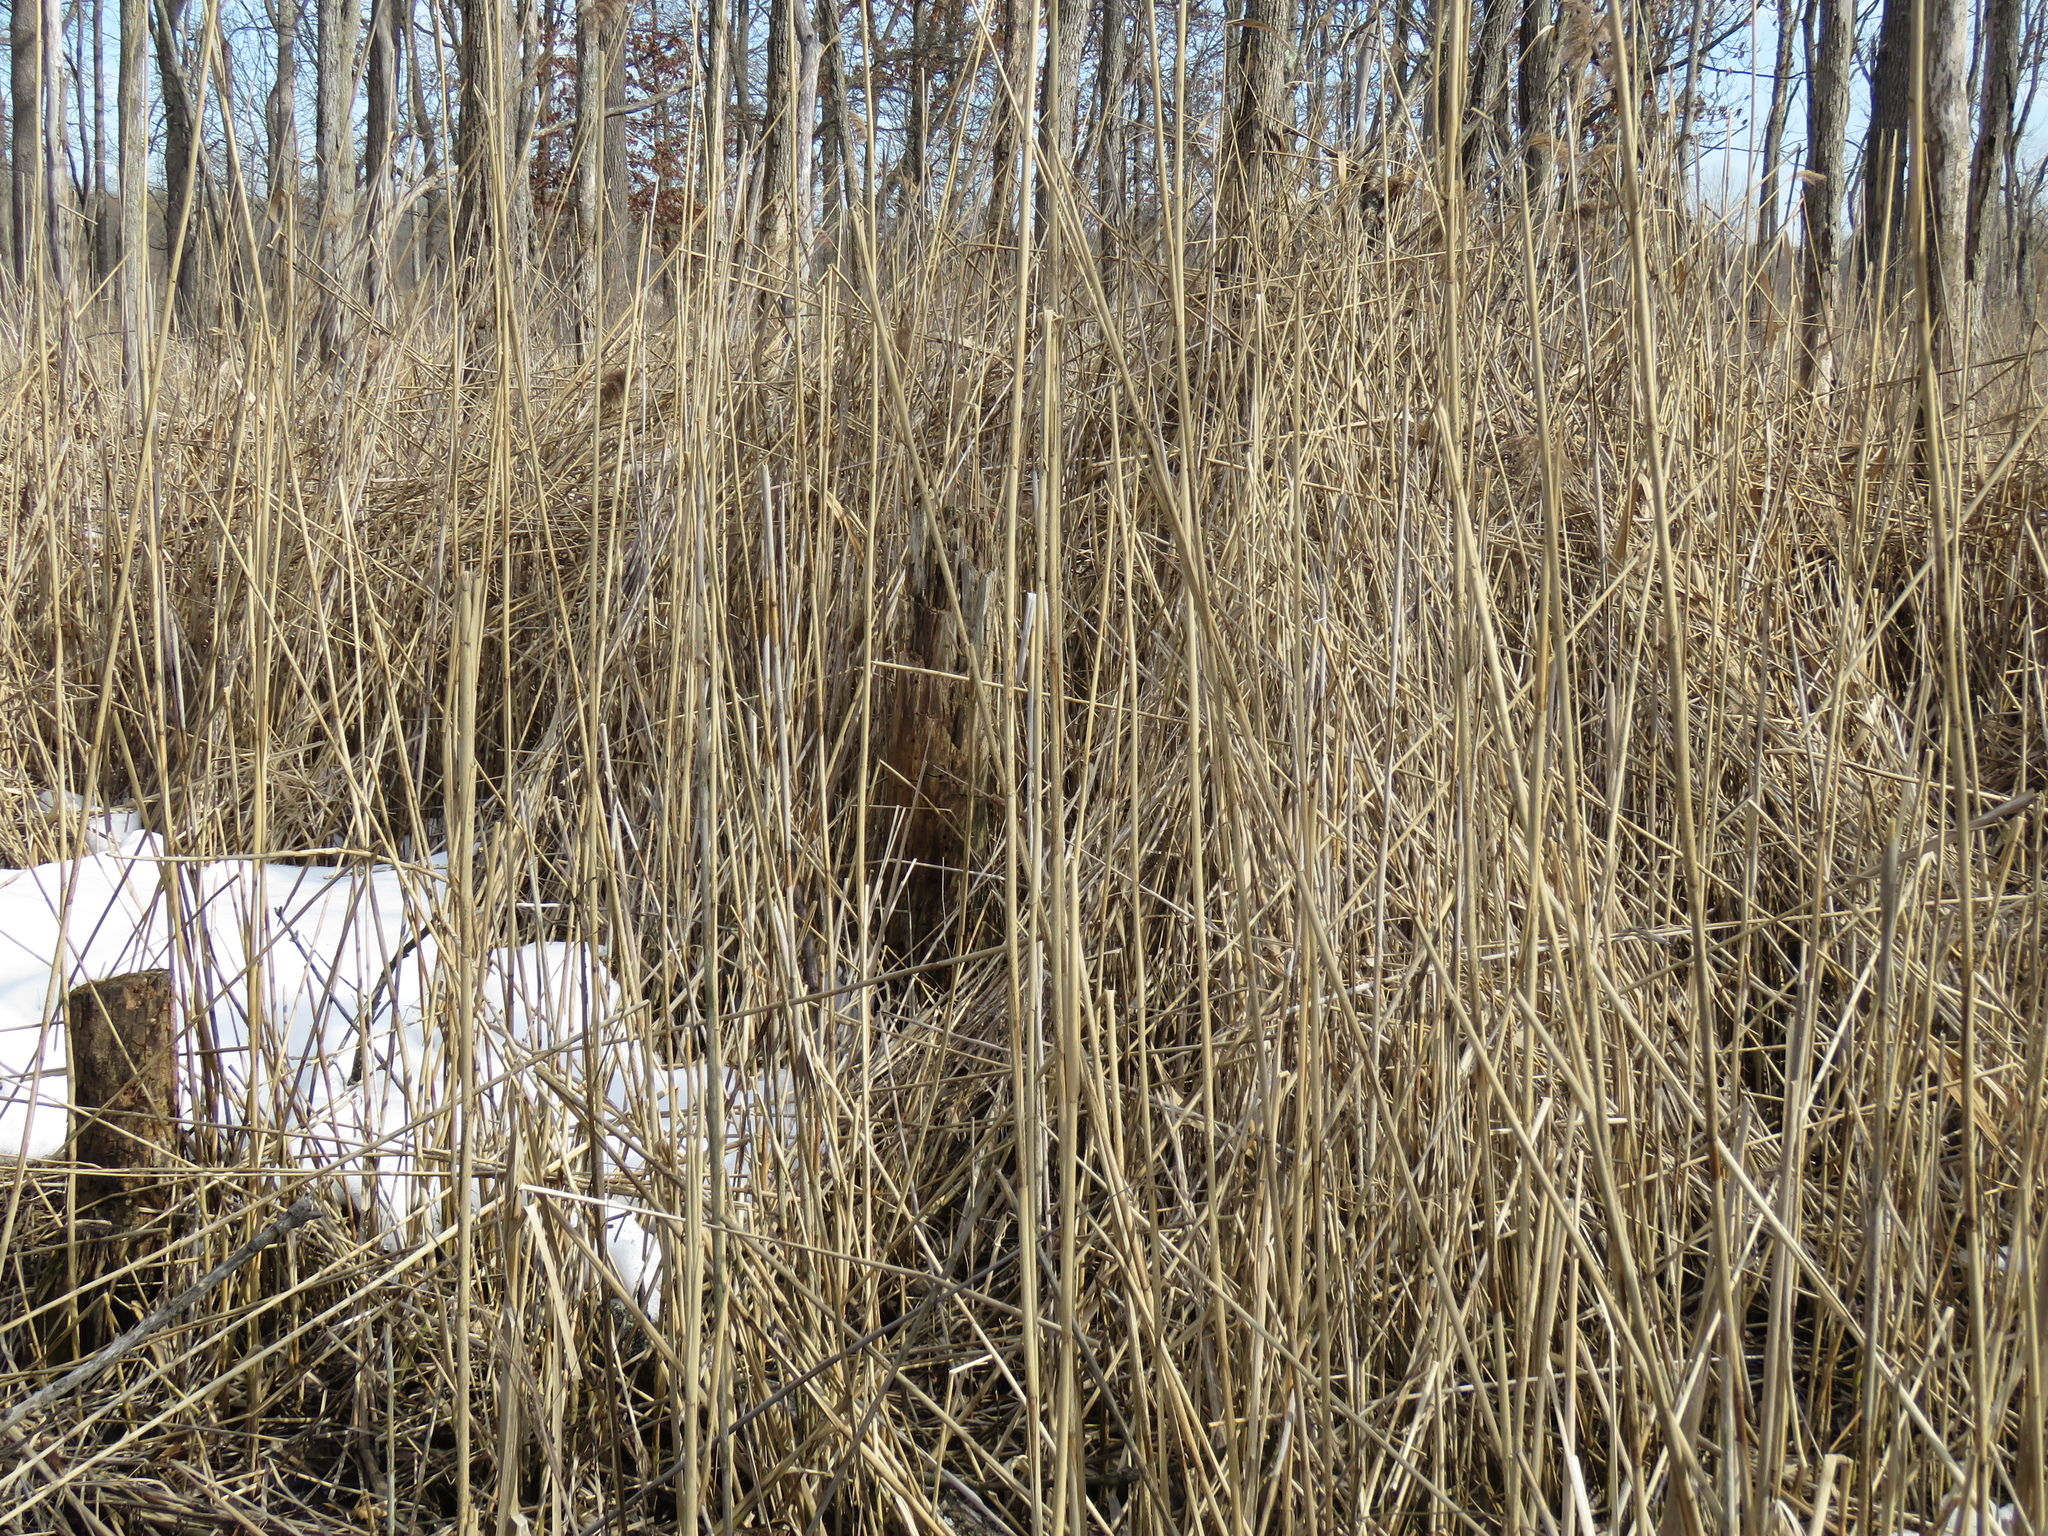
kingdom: Plantae
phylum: Tracheophyta
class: Liliopsida
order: Poales
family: Poaceae
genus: Phragmites
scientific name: Phragmites australis
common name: Common reed
